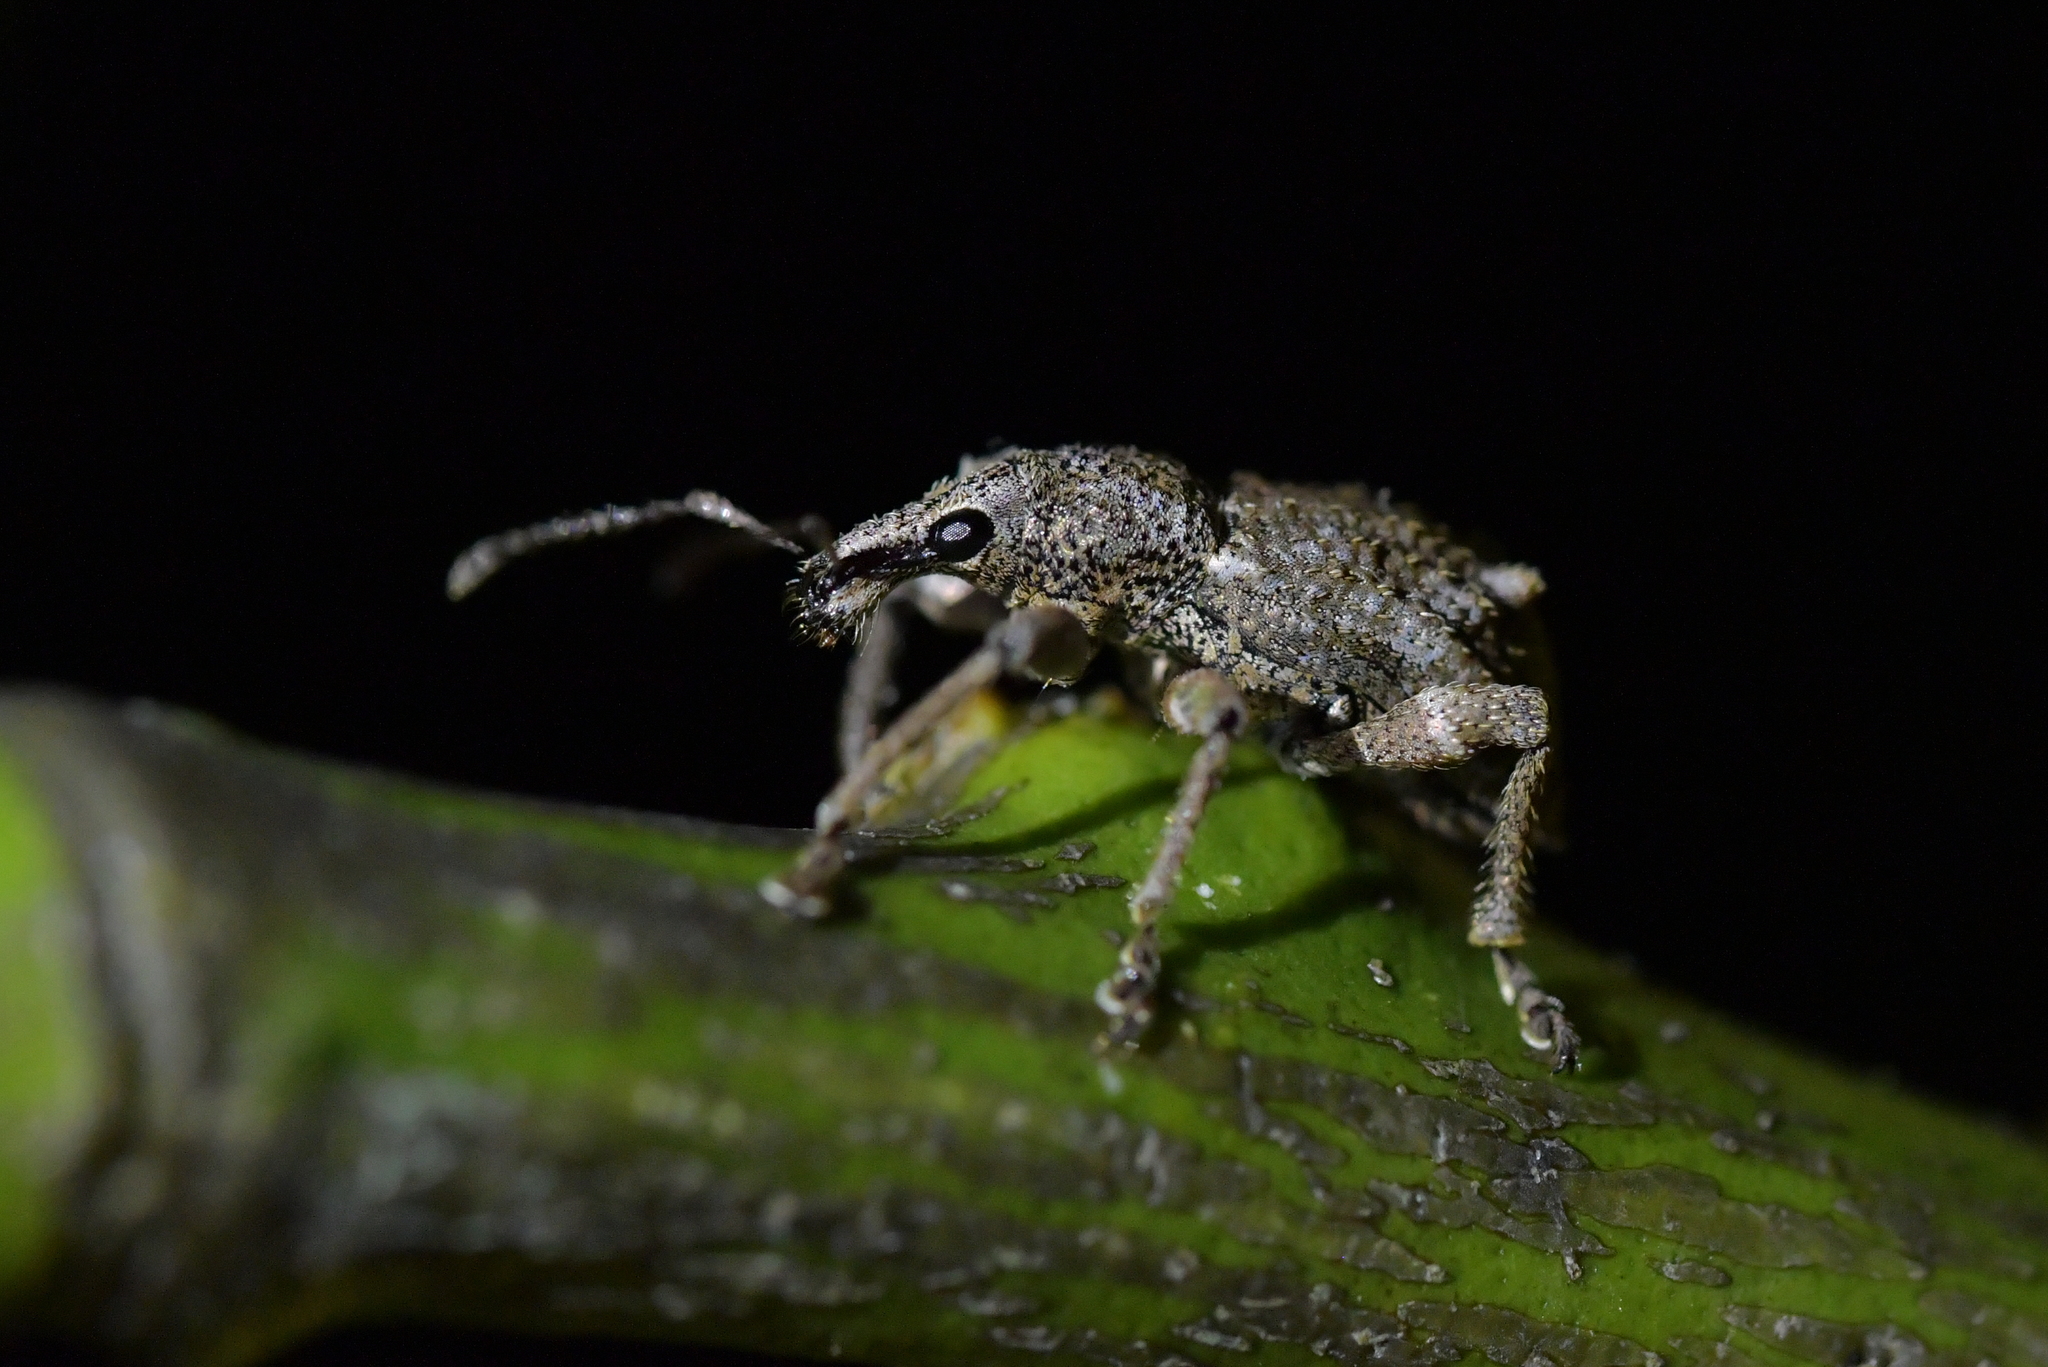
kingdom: Animalia
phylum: Arthropoda
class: Insecta
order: Coleoptera
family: Curculionidae
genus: Catoptes
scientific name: Catoptes binodis
